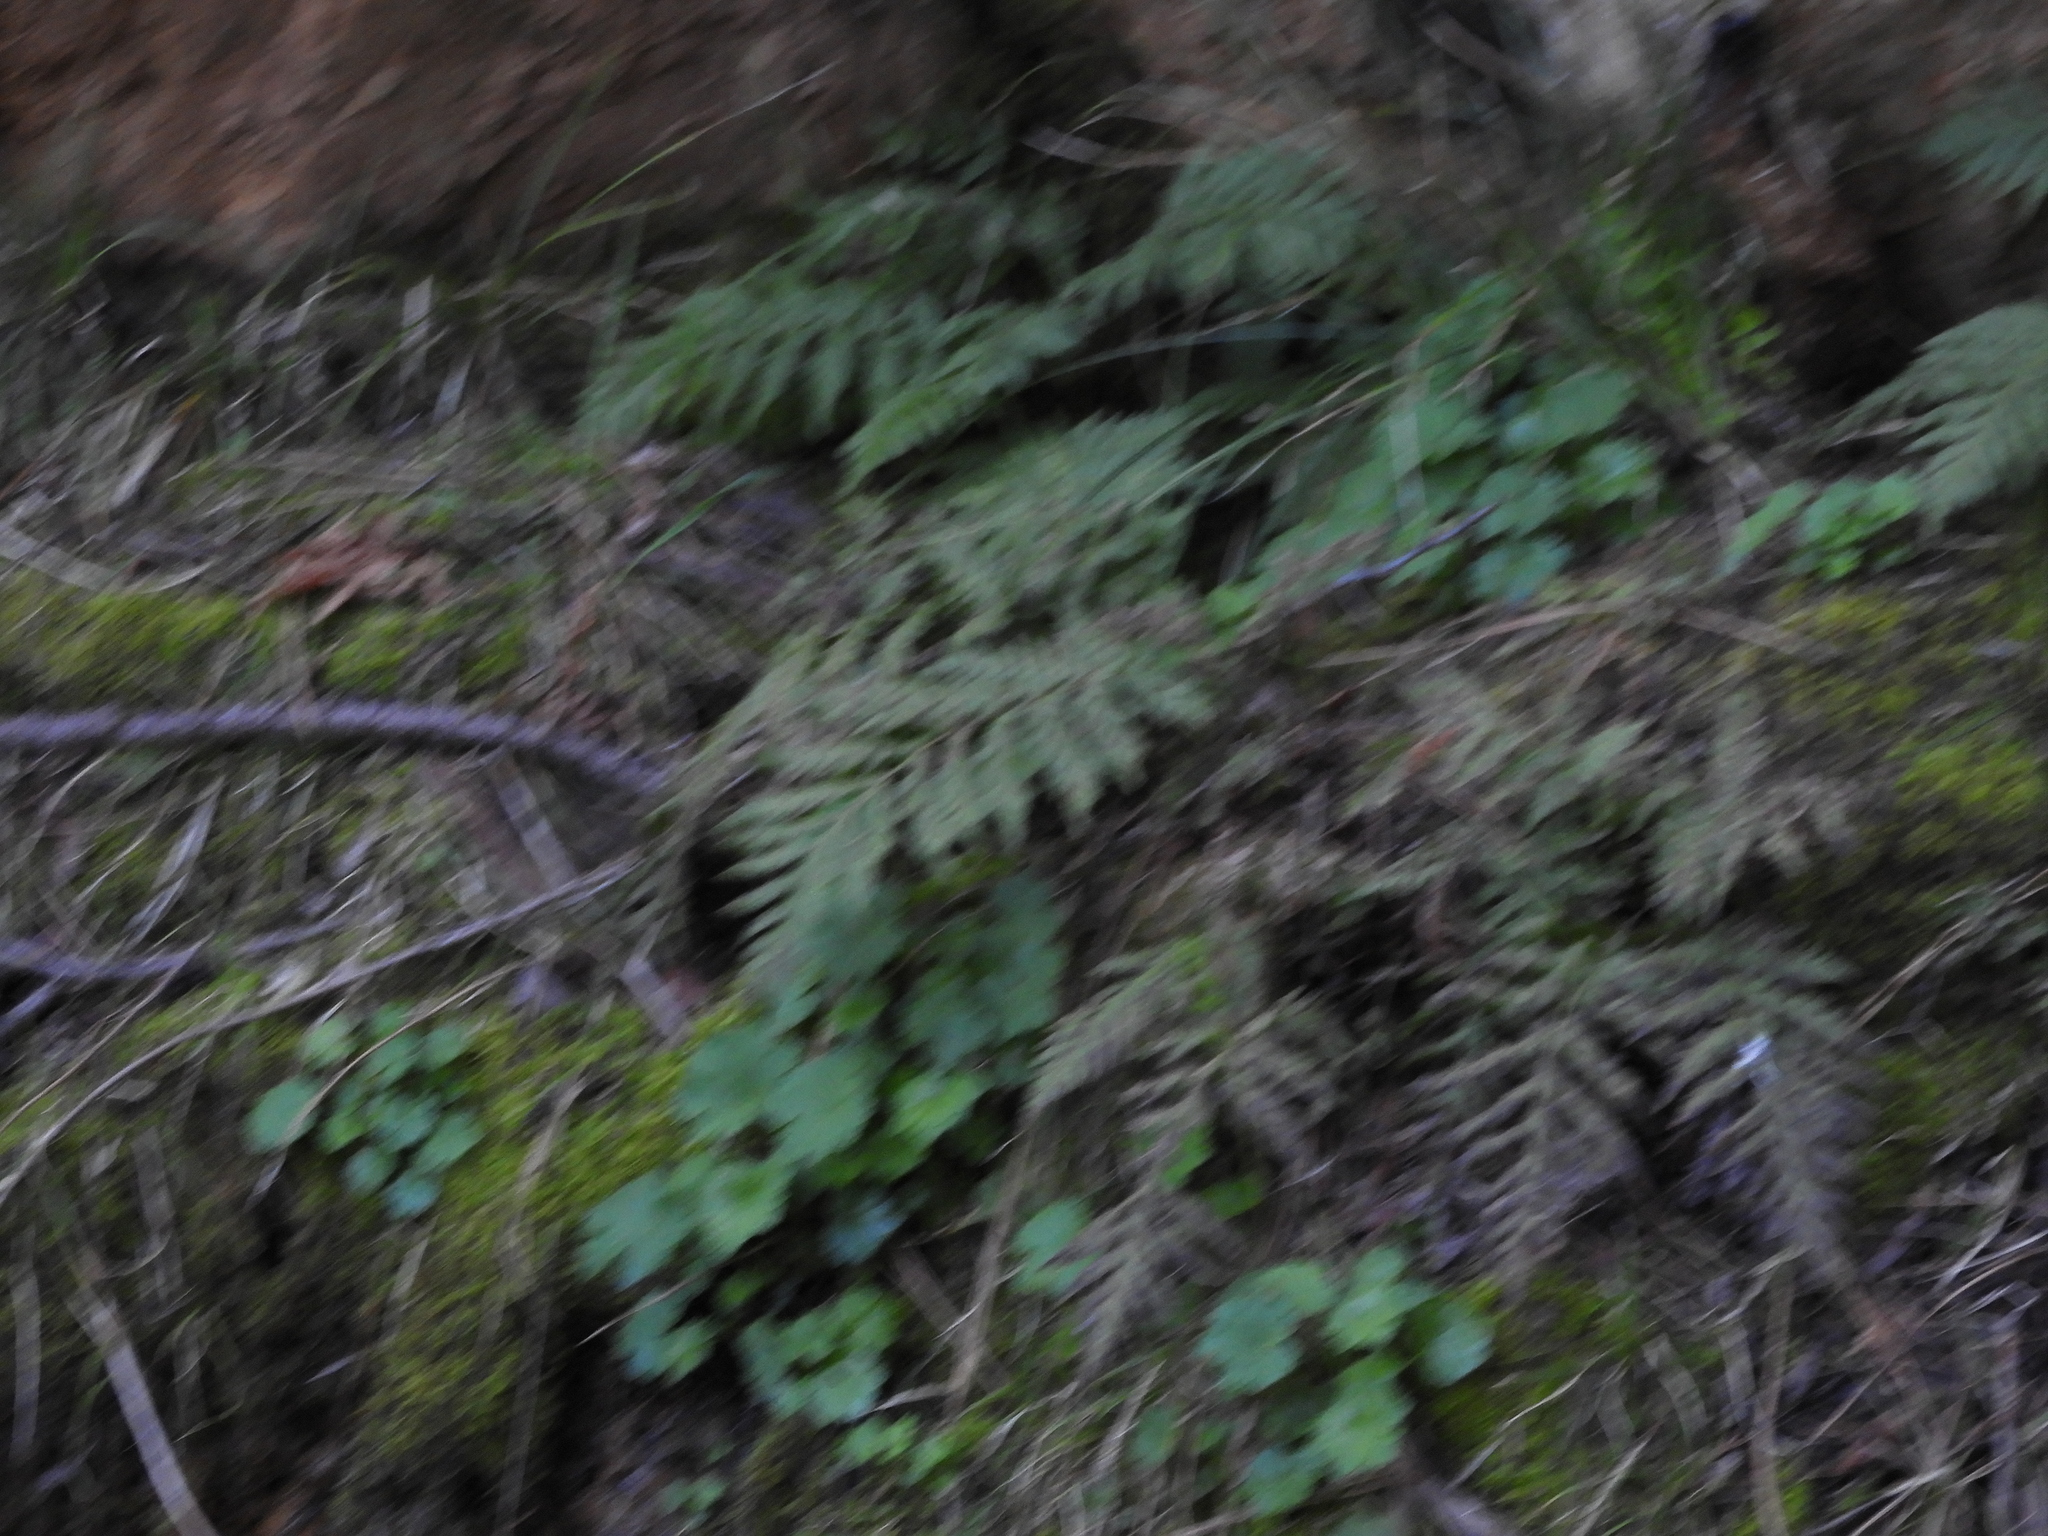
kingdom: Plantae
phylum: Tracheophyta
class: Polypodiopsida
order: Polypodiales
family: Blechnaceae
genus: Woodwardia
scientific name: Woodwardia fimbriata
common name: Giant chain fern
